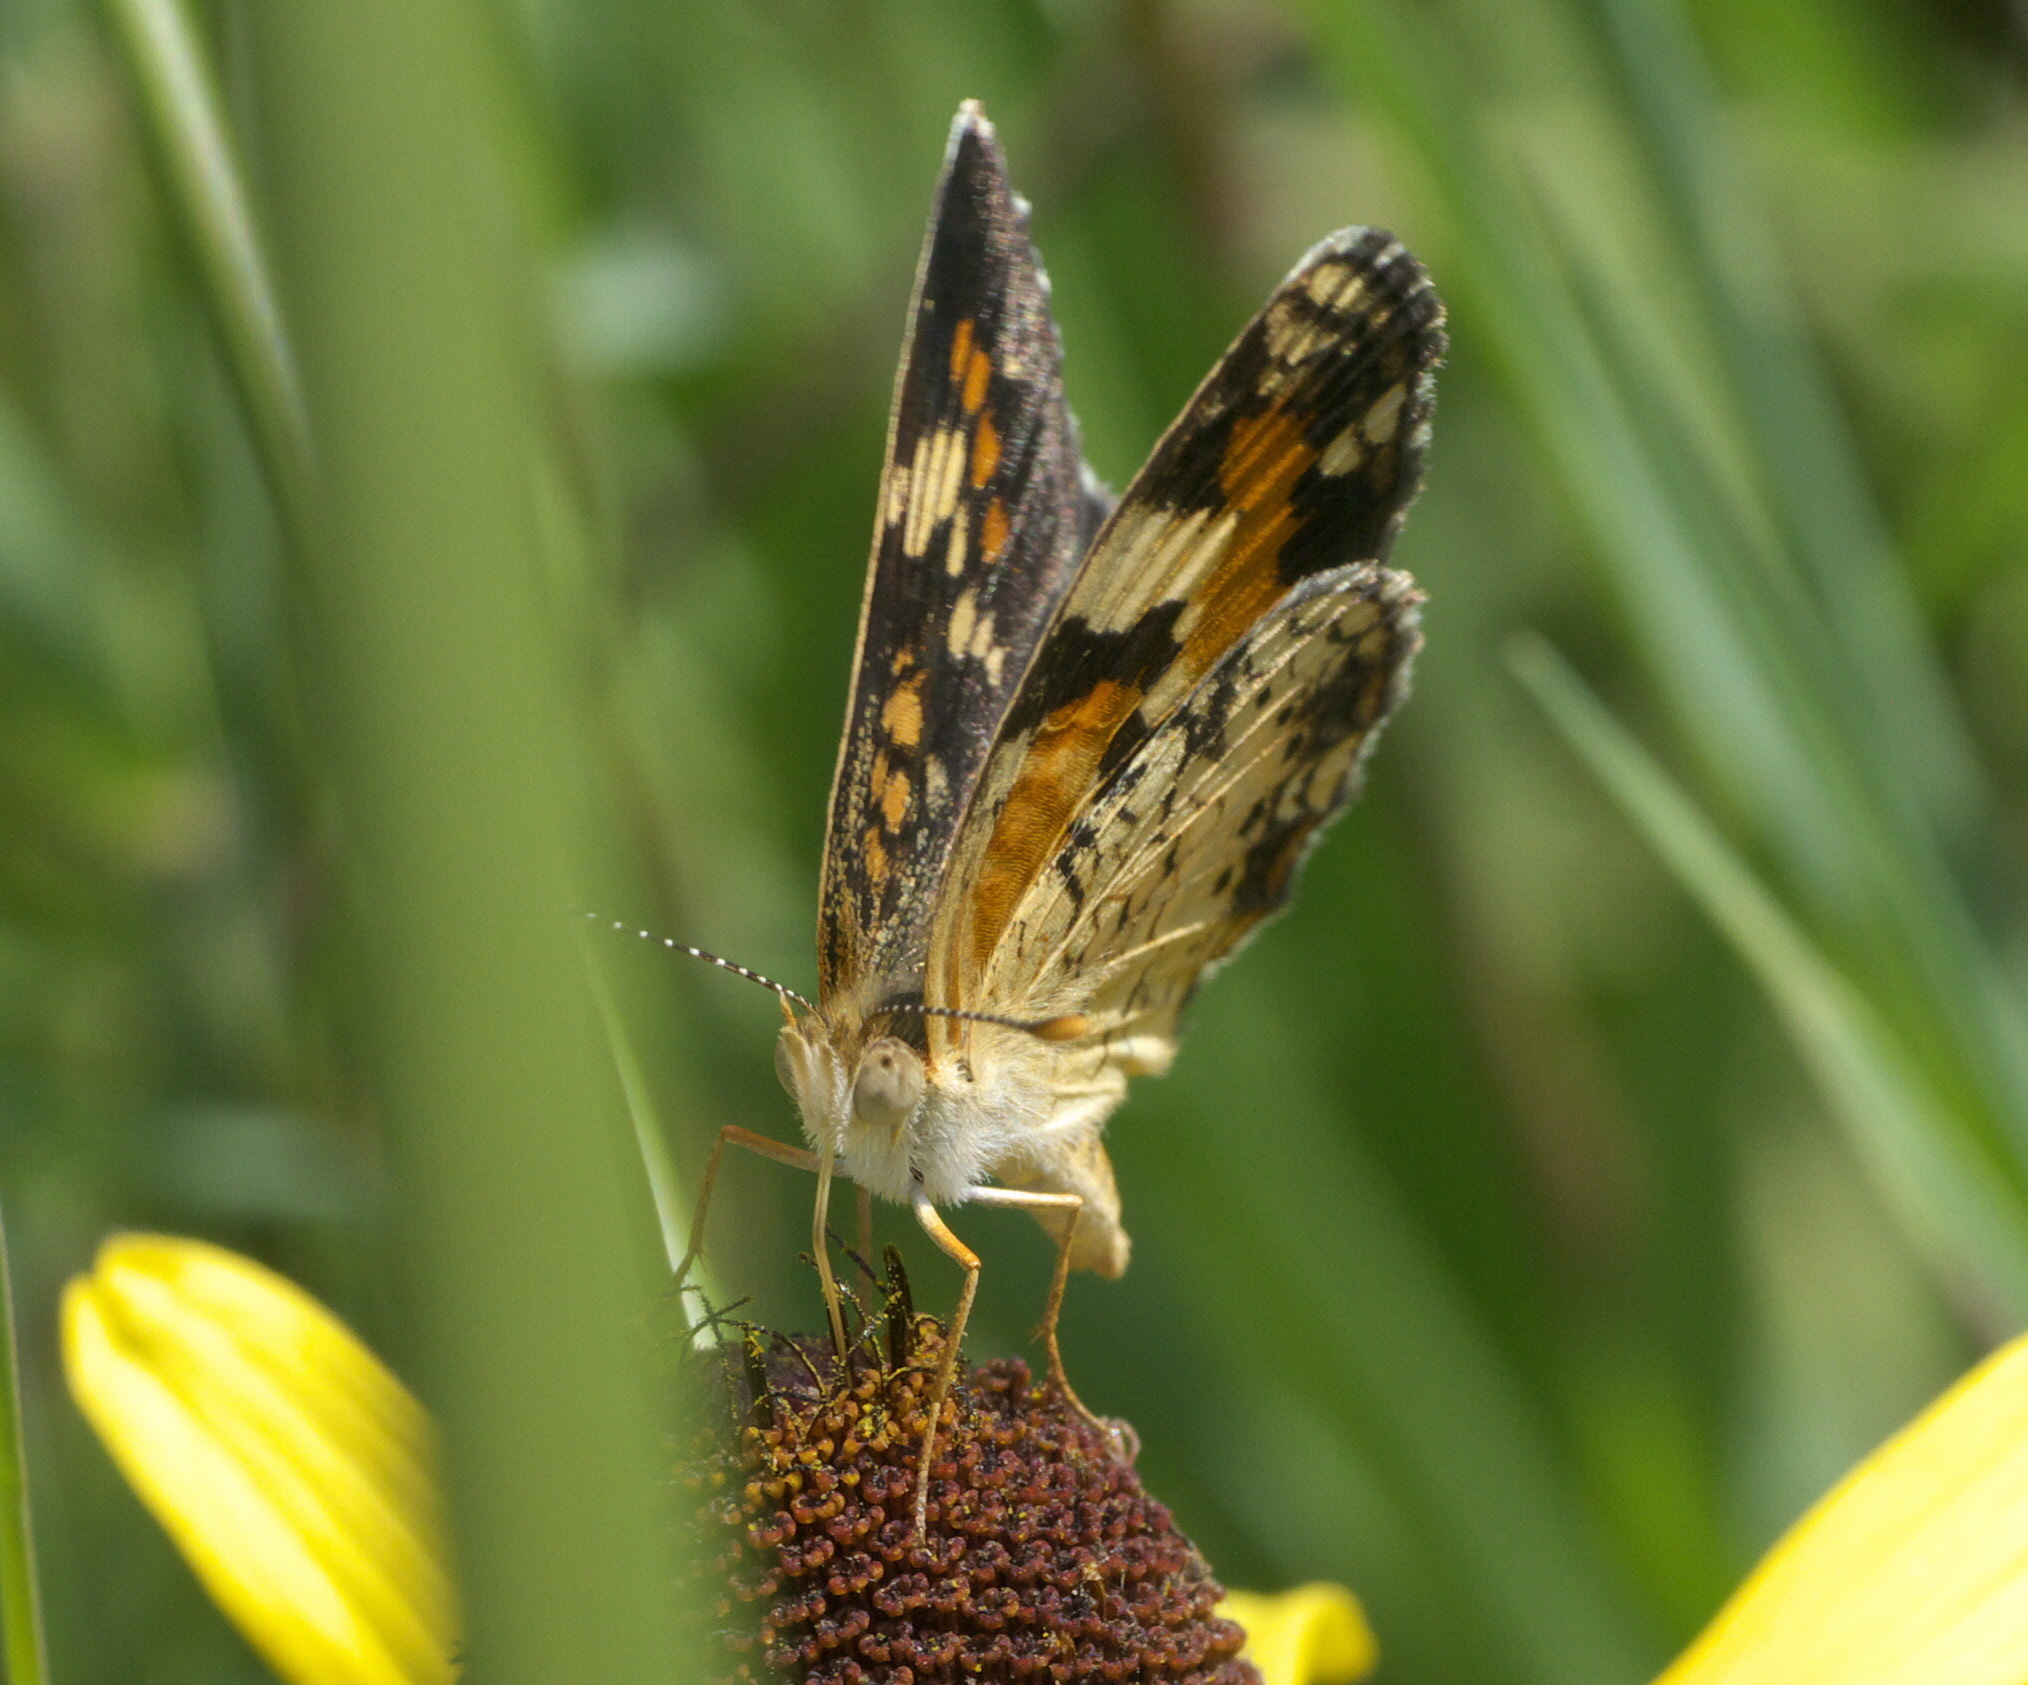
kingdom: Animalia
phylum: Arthropoda
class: Insecta
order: Lepidoptera
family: Nymphalidae
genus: Phyciodes
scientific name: Phyciodes phaon
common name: Phaon crescent
